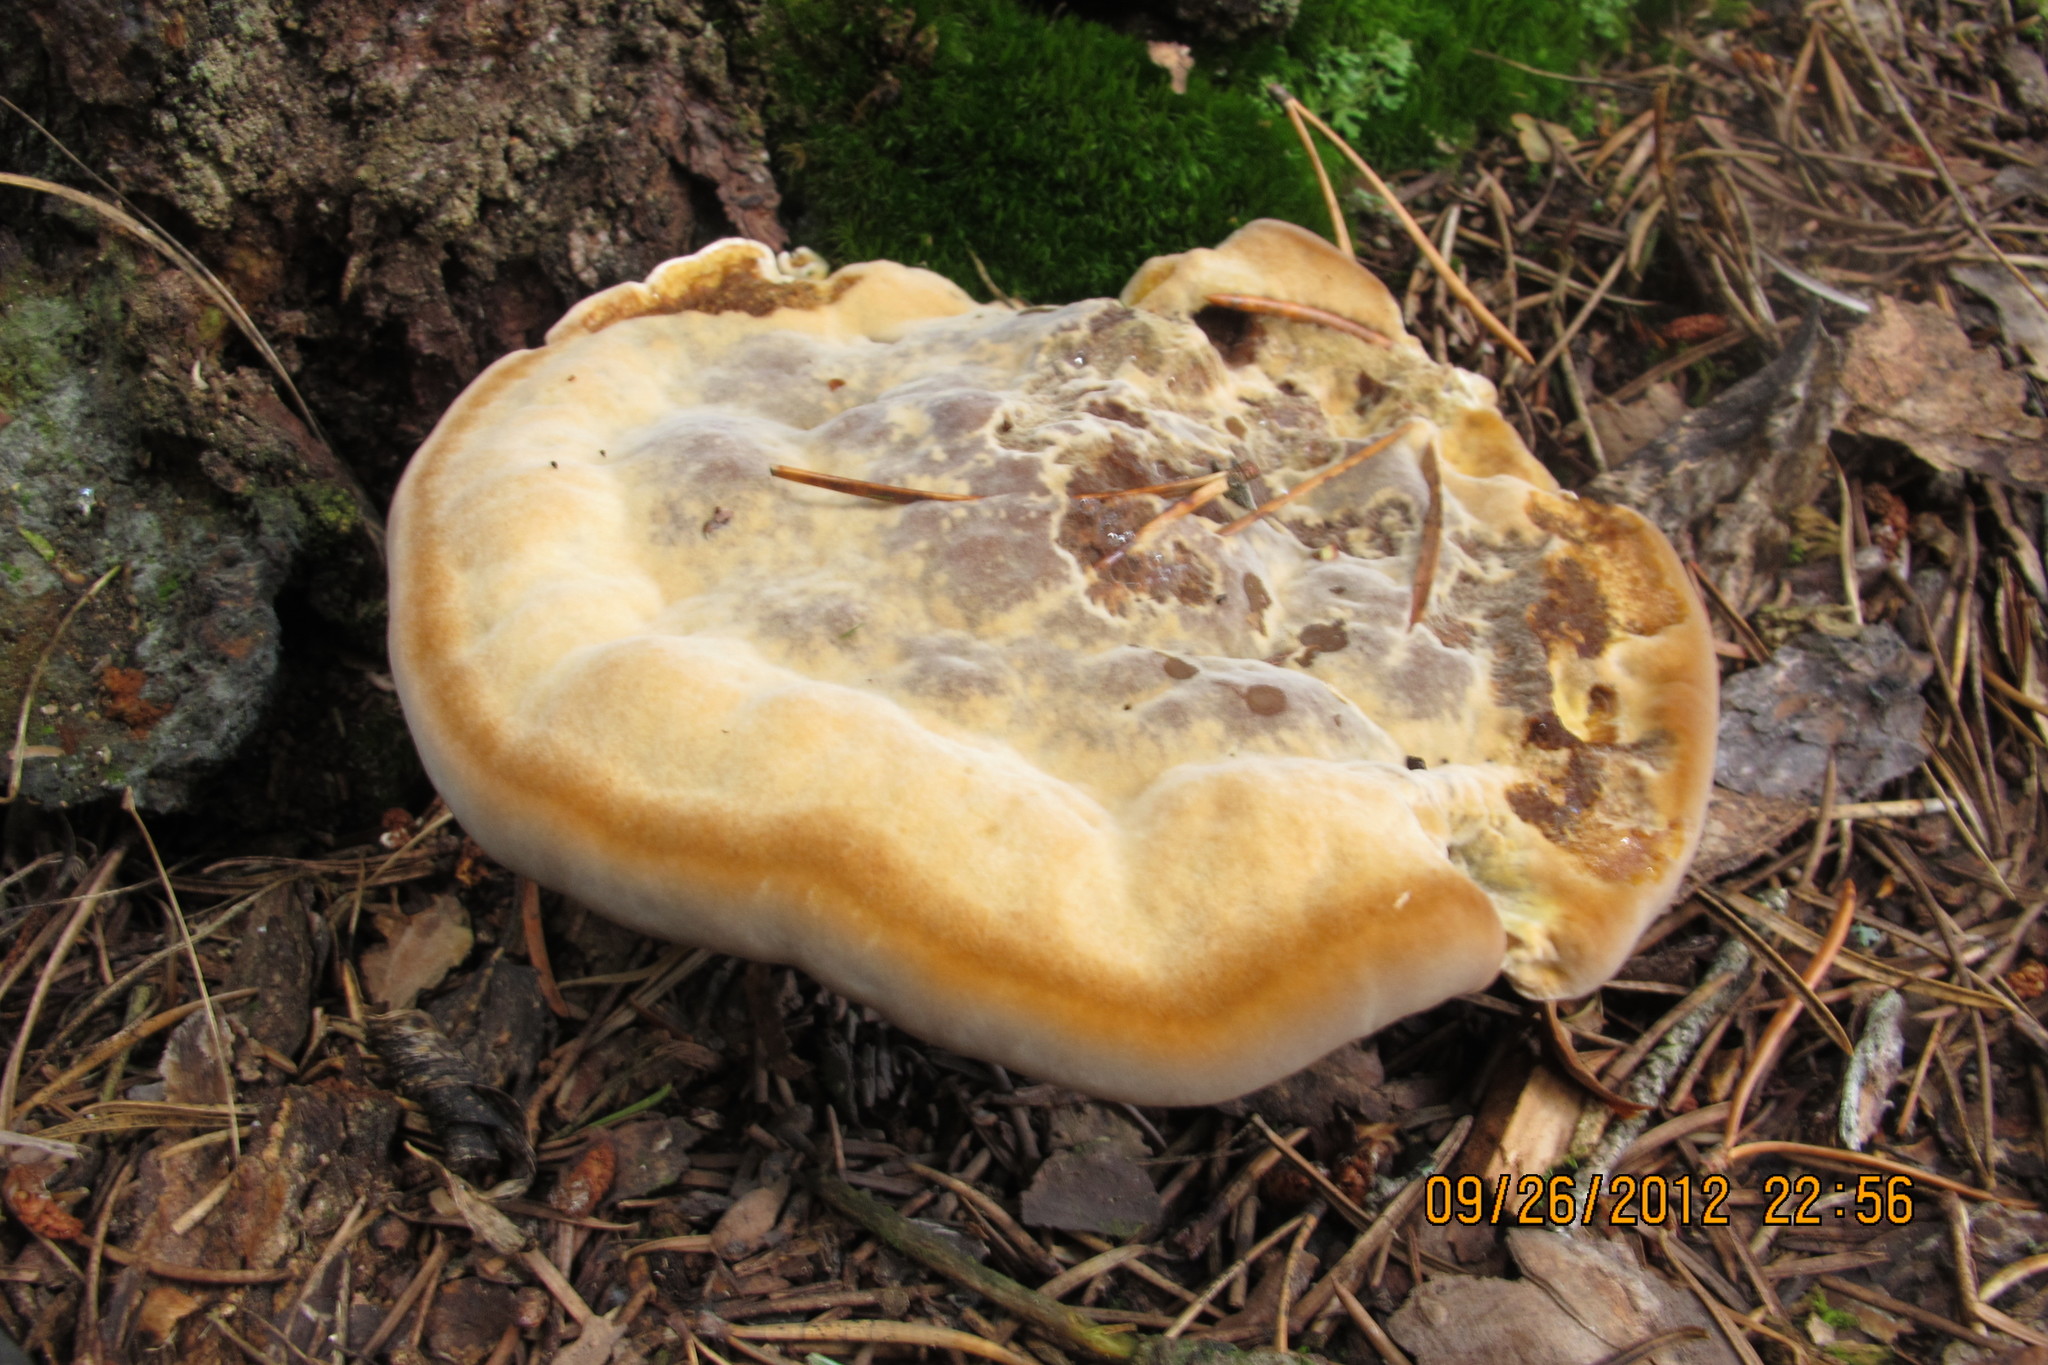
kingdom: Fungi
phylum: Basidiomycota
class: Agaricomycetes
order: Polyporales
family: Laetiporaceae
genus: Phaeolus
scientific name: Phaeolus schweinitzii
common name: Dyer's mazegill
